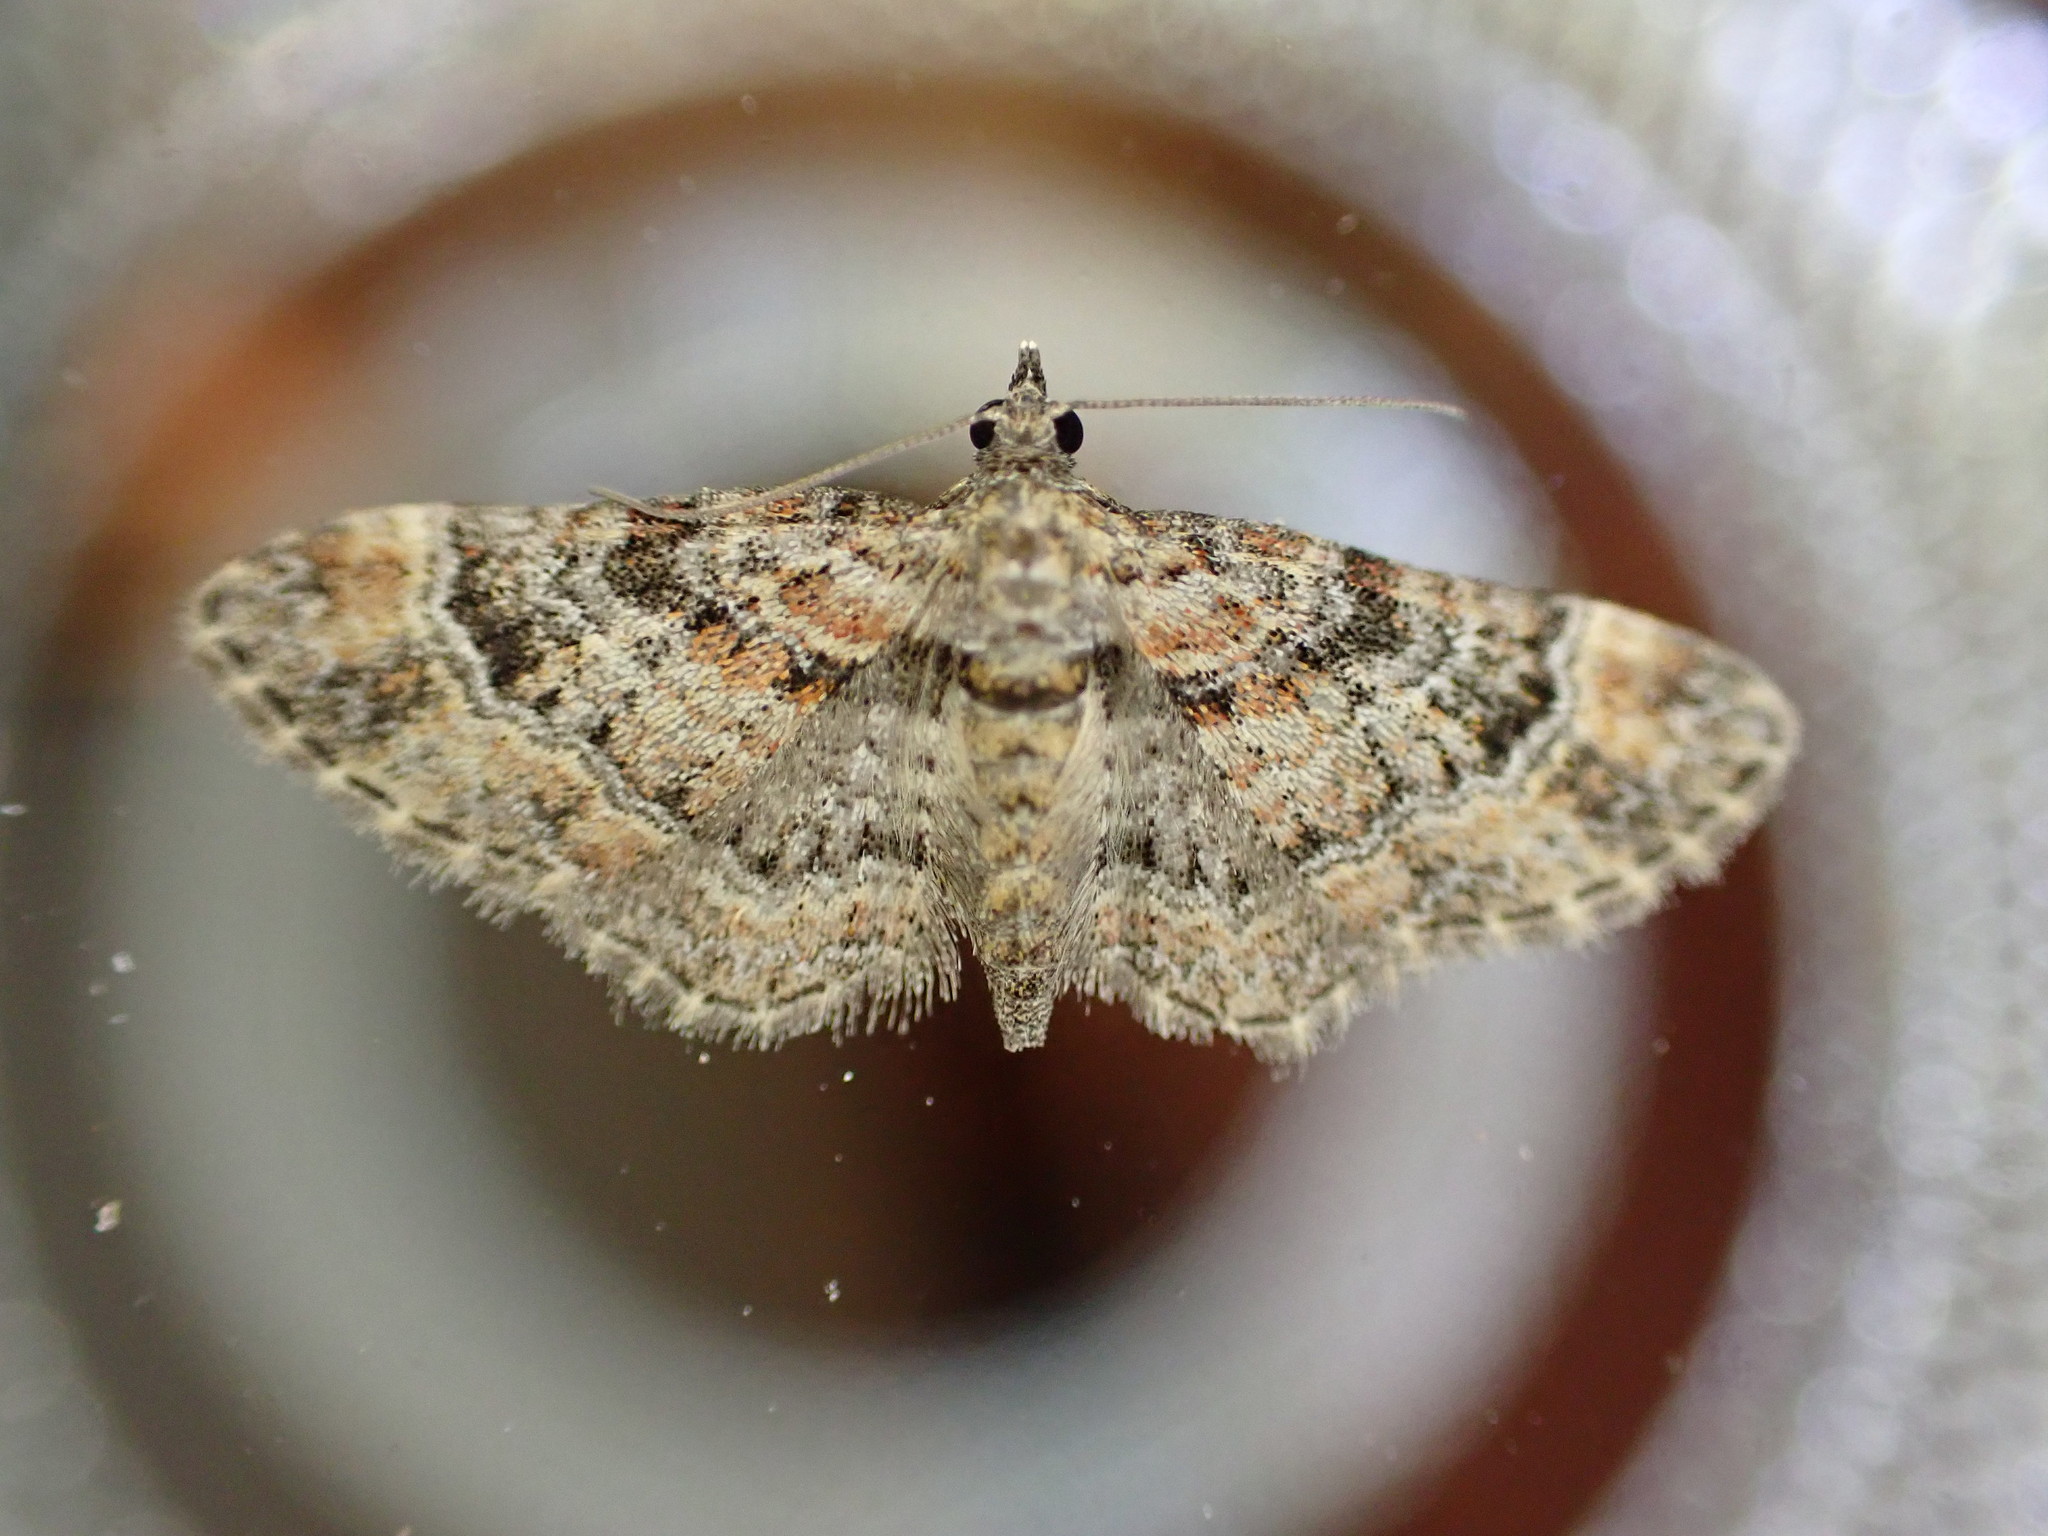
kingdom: Animalia
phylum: Arthropoda
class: Insecta
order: Lepidoptera
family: Geometridae
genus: Gymnoscelis
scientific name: Gymnoscelis rufifasciata
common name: Double-striped pug
